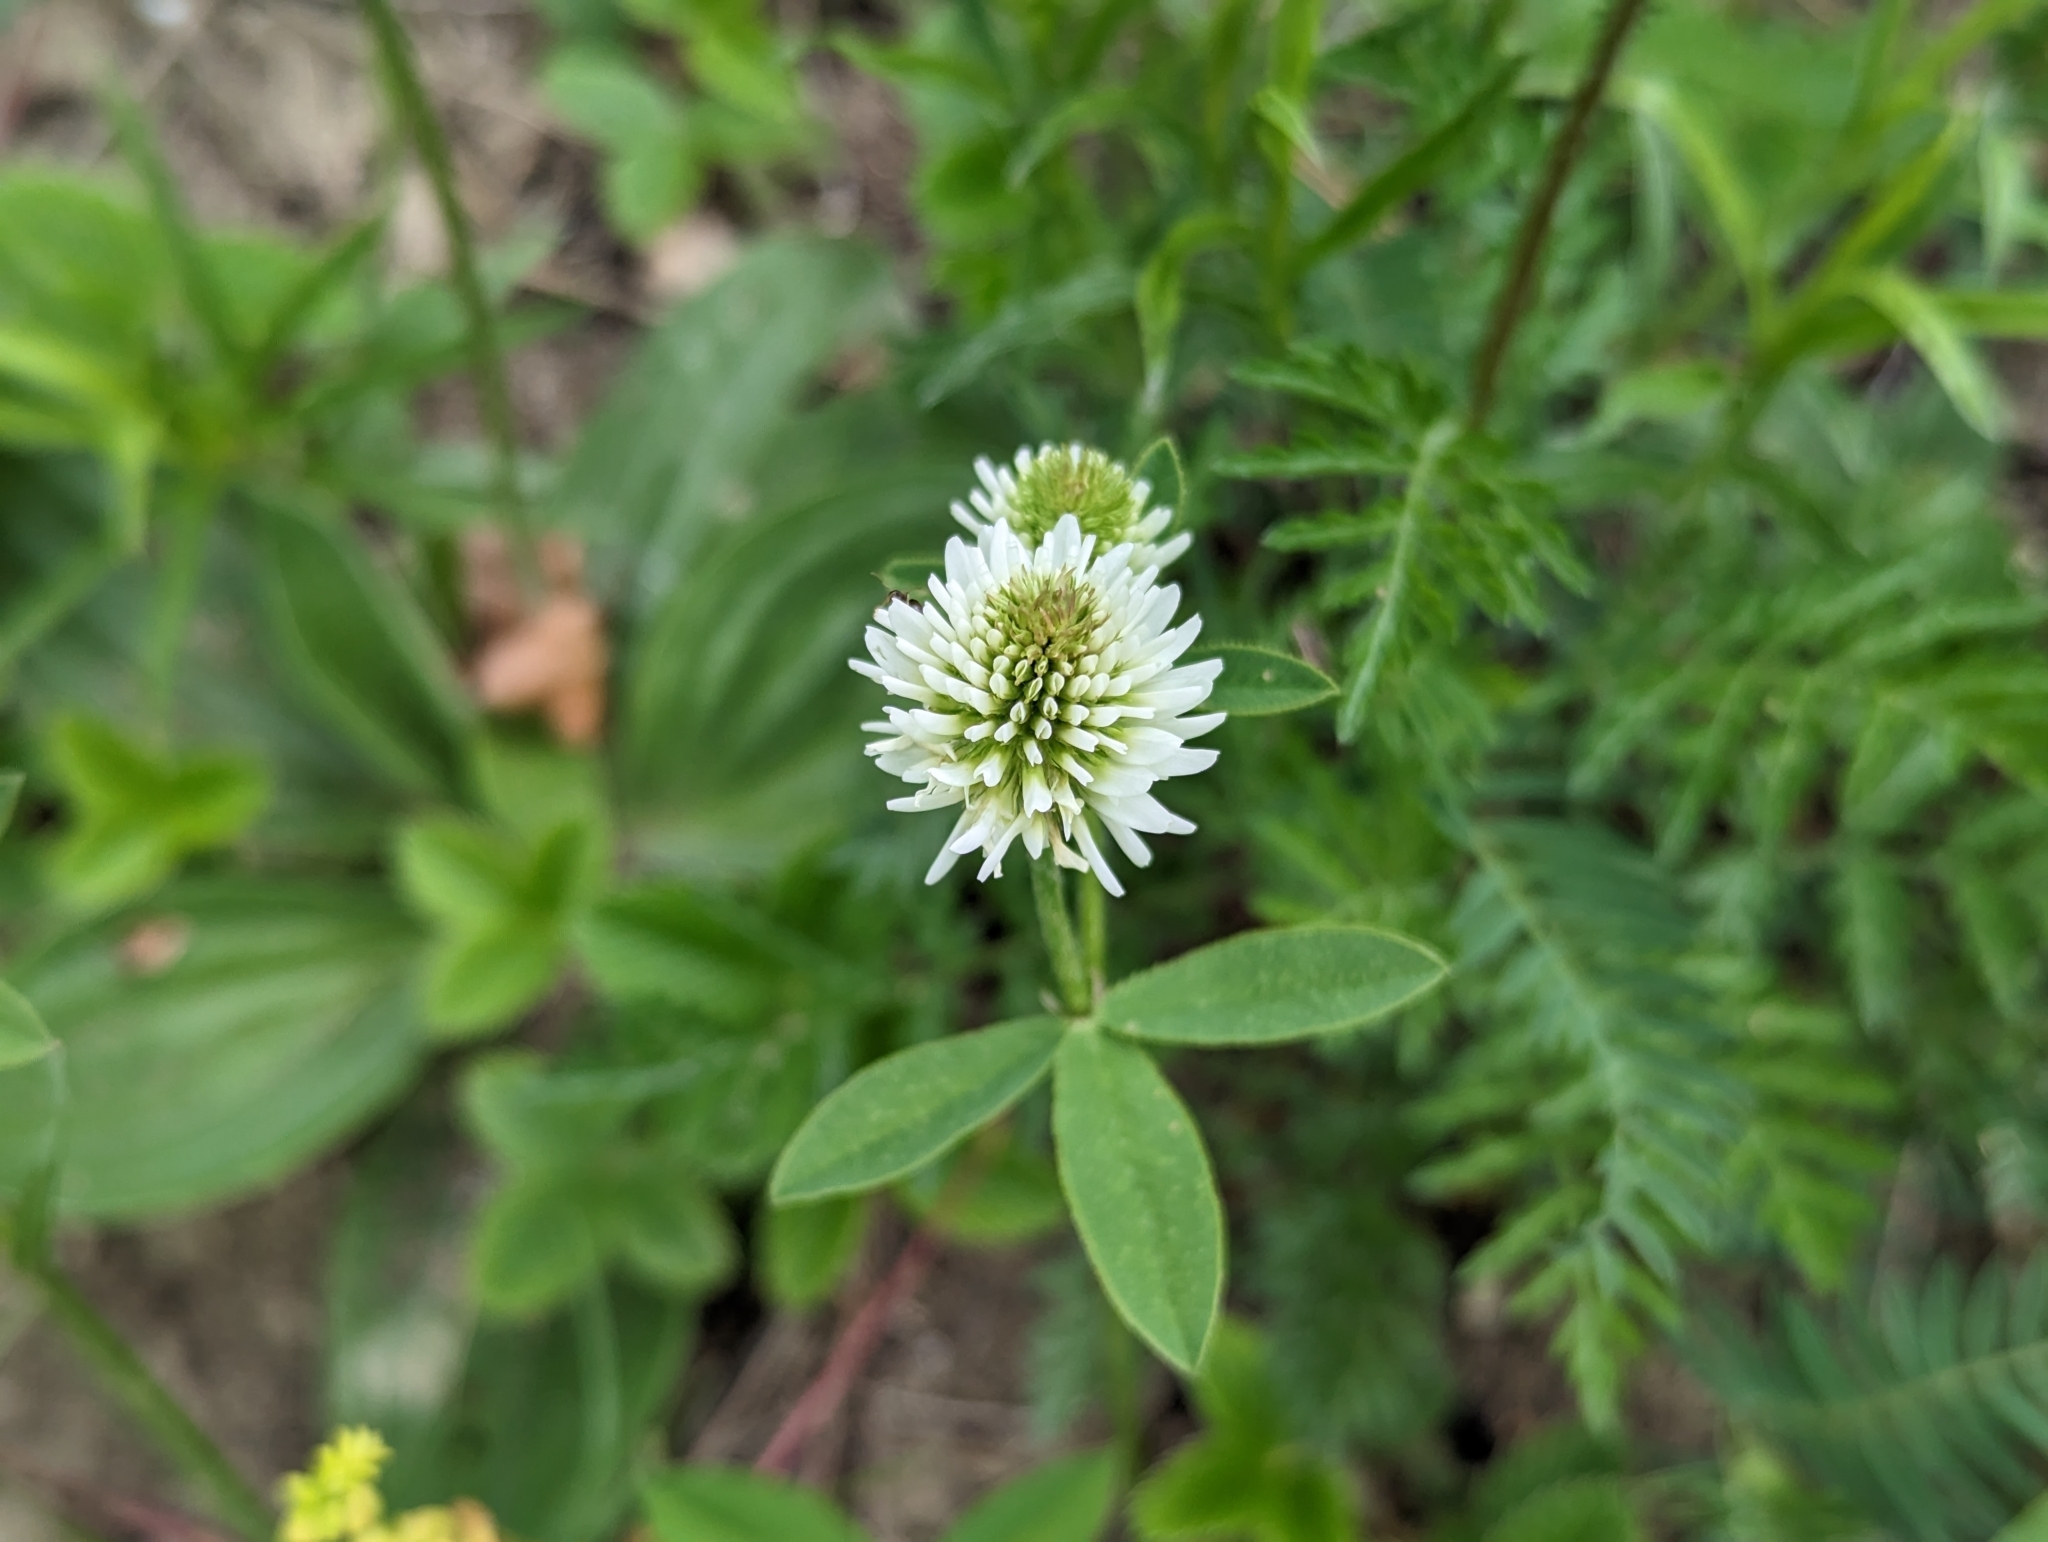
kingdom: Plantae
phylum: Tracheophyta
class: Magnoliopsida
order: Fabales
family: Fabaceae
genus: Trifolium
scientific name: Trifolium montanum
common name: Mountain clover
